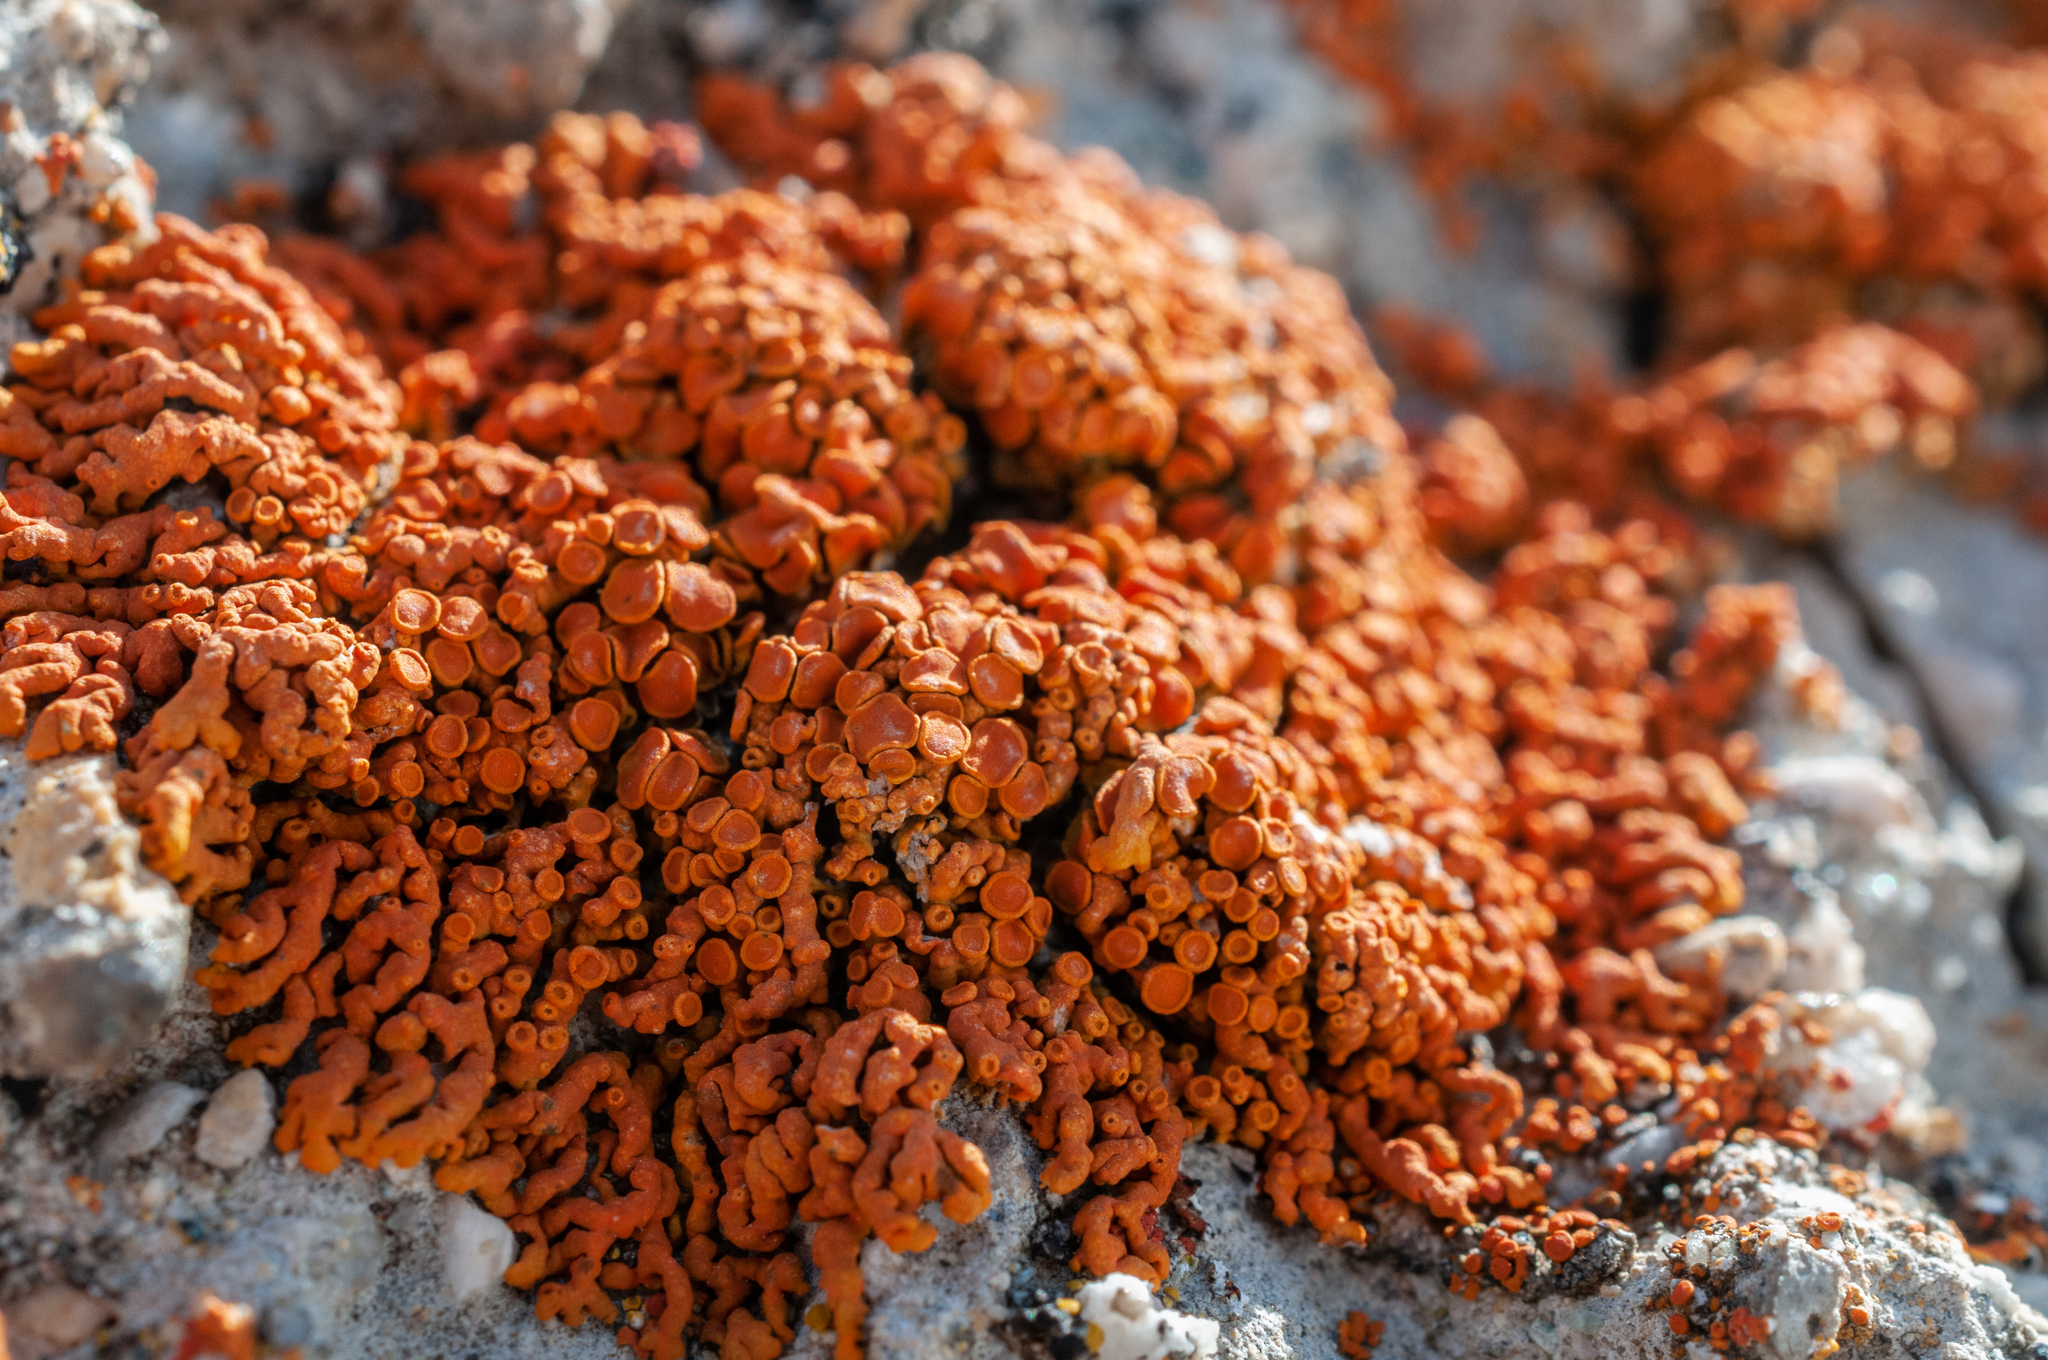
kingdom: Fungi
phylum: Ascomycota
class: Lecanoromycetes
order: Teloschistales
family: Teloschistaceae
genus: Xanthoria
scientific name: Xanthoria elegans
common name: Elegant sunburst lichen
